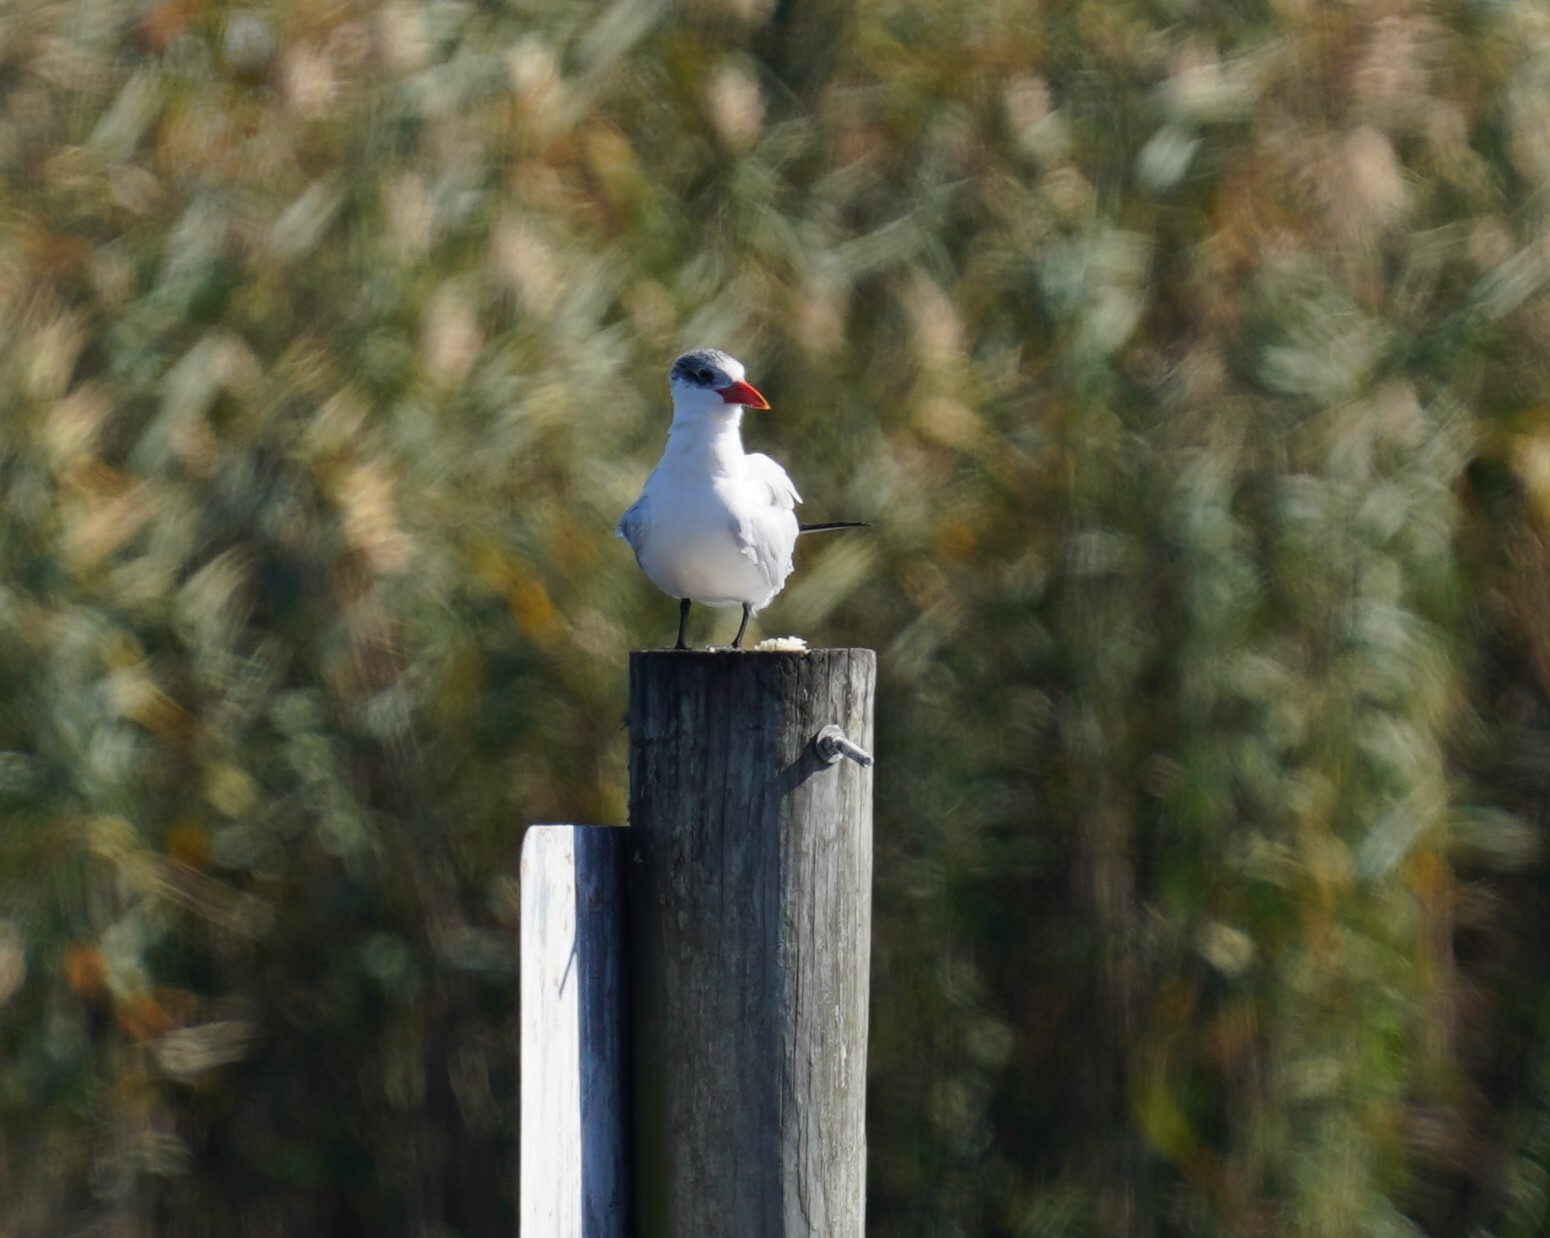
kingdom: Animalia
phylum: Chordata
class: Aves
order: Charadriiformes
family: Laridae
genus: Hydroprogne
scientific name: Hydroprogne caspia
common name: Caspian tern
